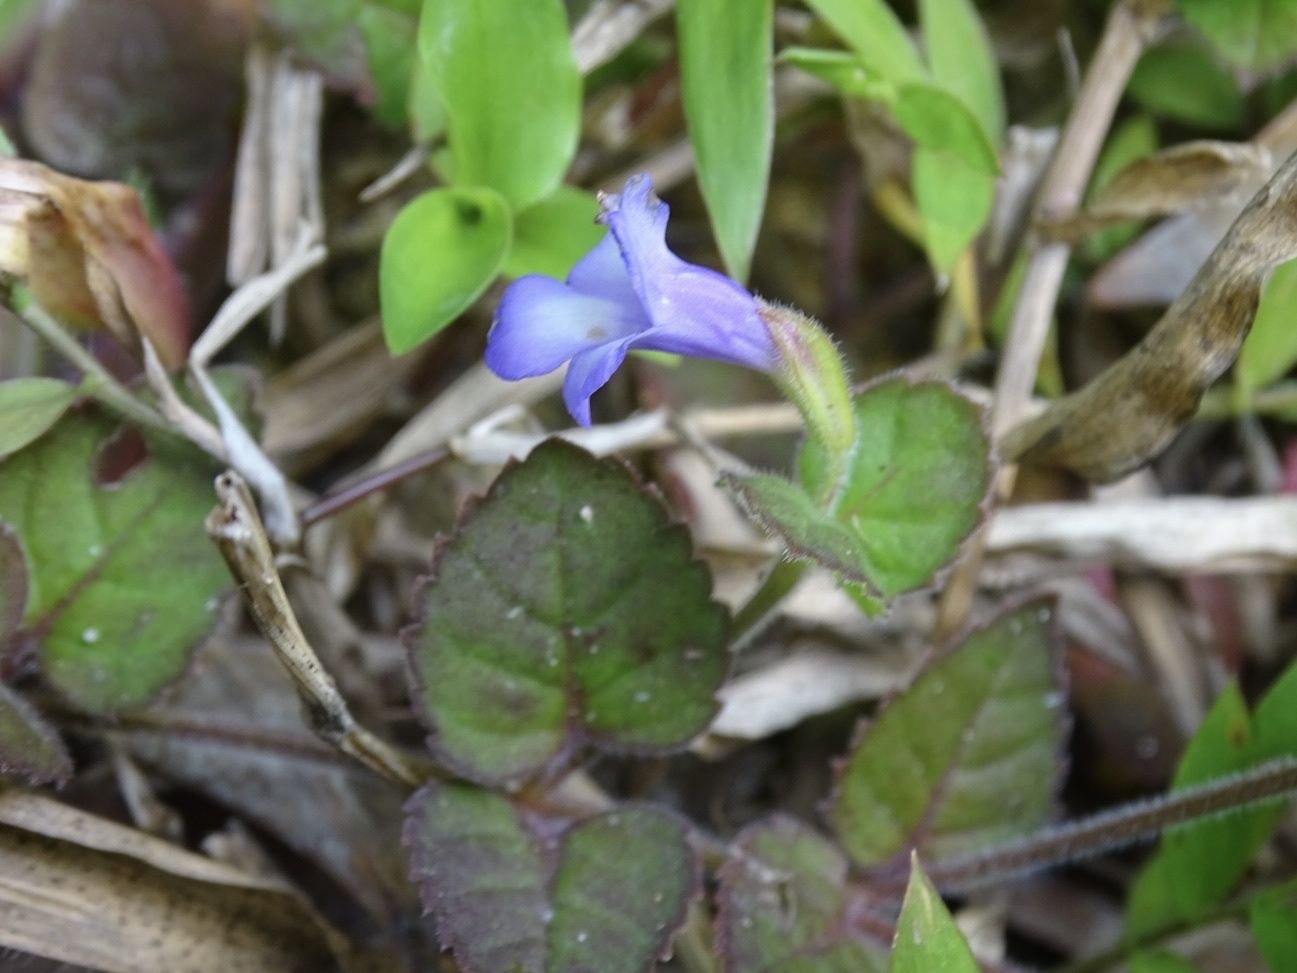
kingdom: Plantae
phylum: Tracheophyta
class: Magnoliopsida
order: Lamiales
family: Linderniaceae
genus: Torenia
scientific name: Torenia benthamiana
